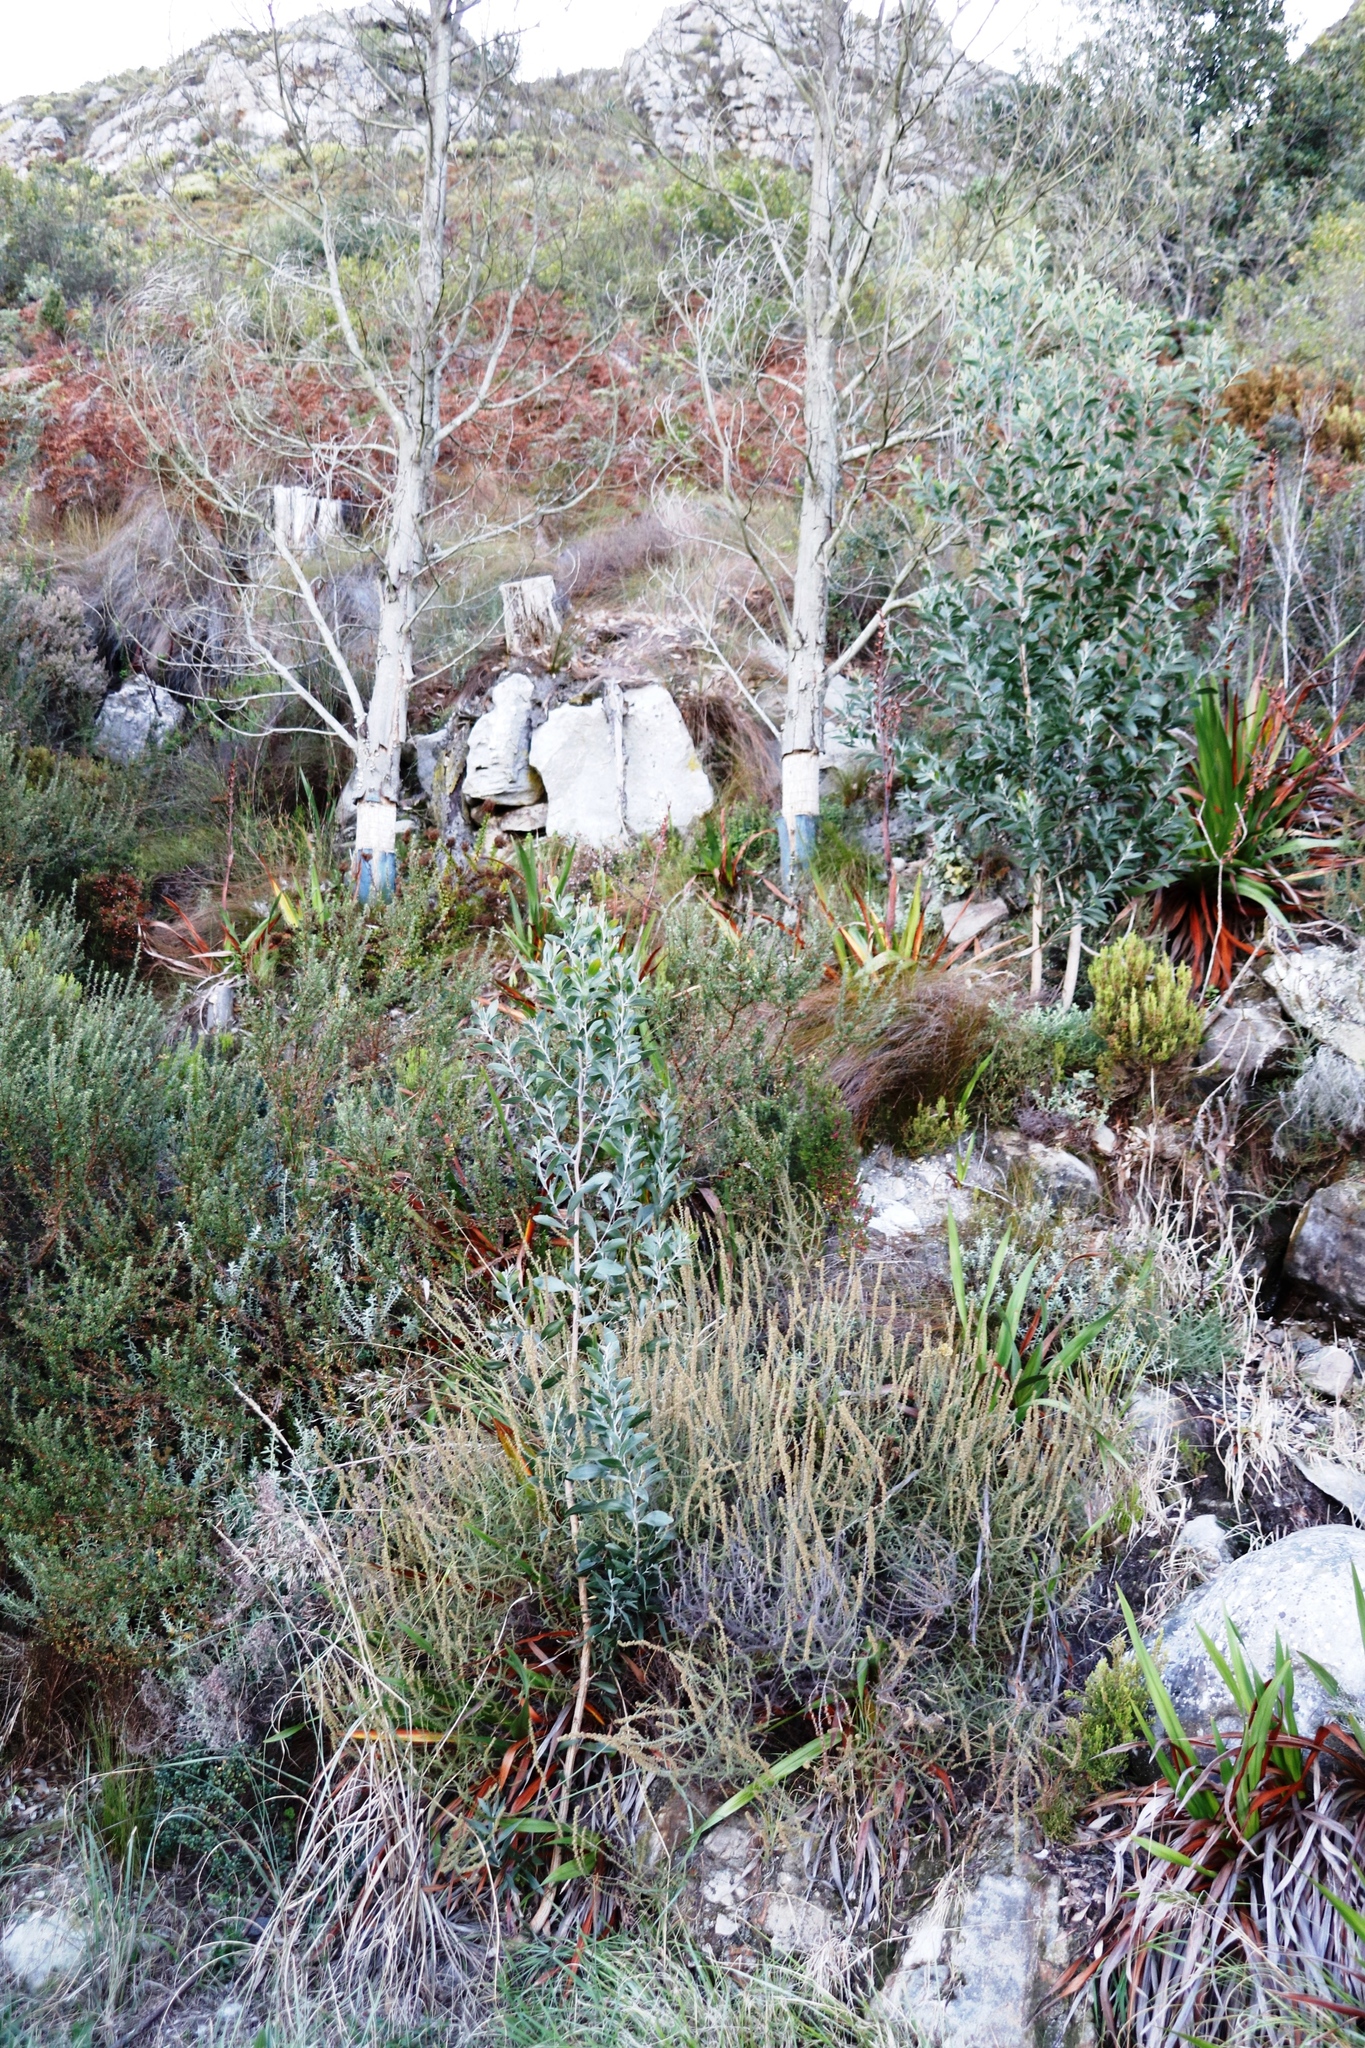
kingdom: Plantae
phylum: Tracheophyta
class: Magnoliopsida
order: Fabales
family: Fabaceae
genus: Acacia
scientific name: Acacia melanoxylon
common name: Blackwood
